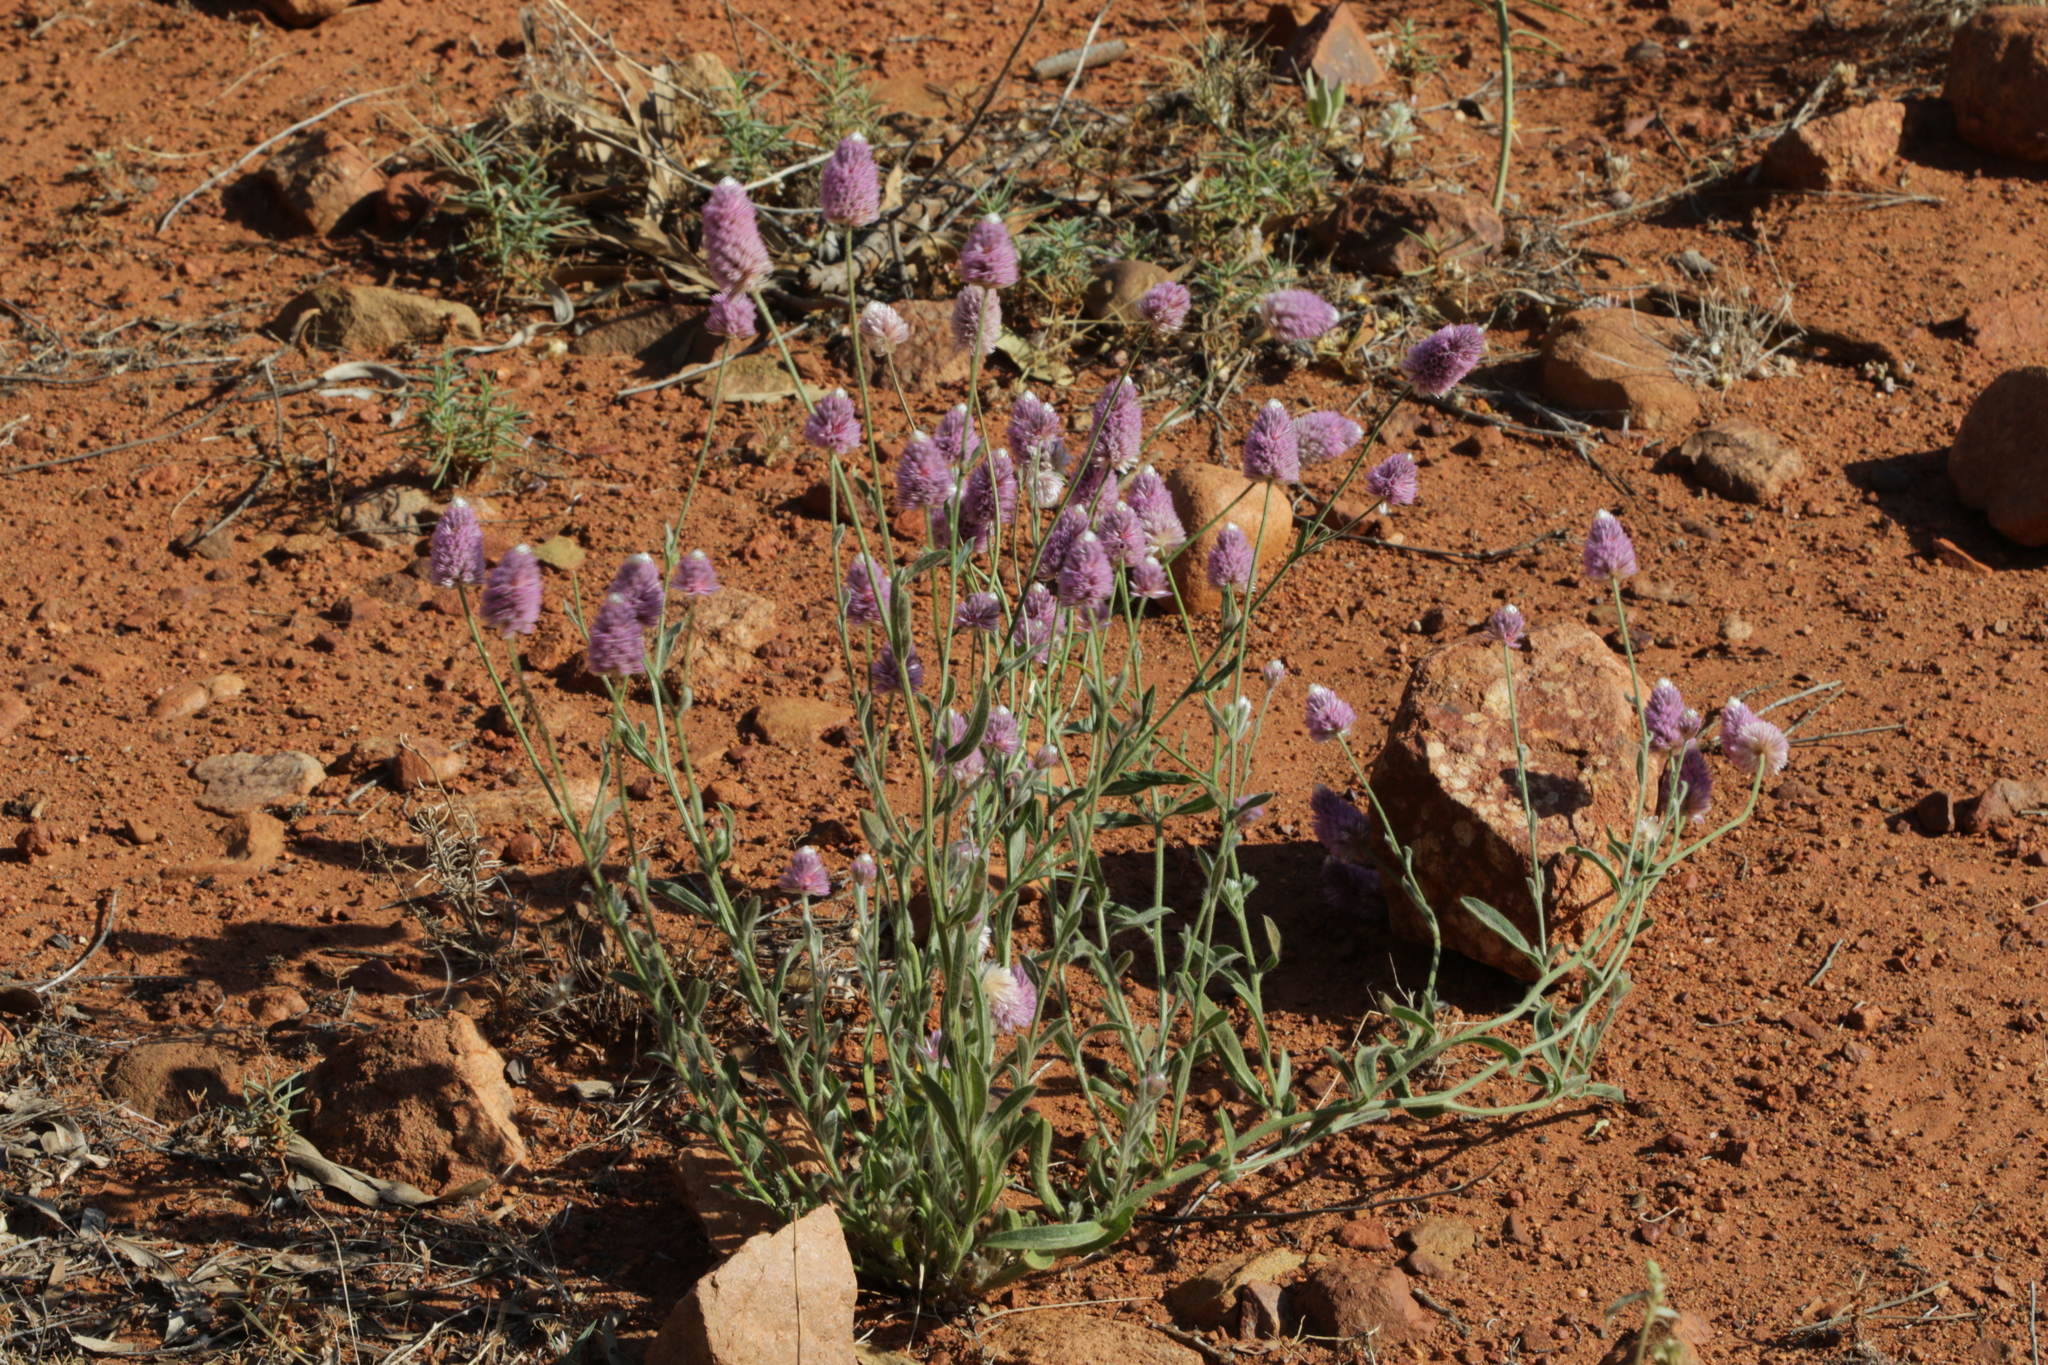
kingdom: Plantae
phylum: Tracheophyta
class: Magnoliopsida
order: Caryophyllales
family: Amaranthaceae
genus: Ptilotus
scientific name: Ptilotus helipteroides
